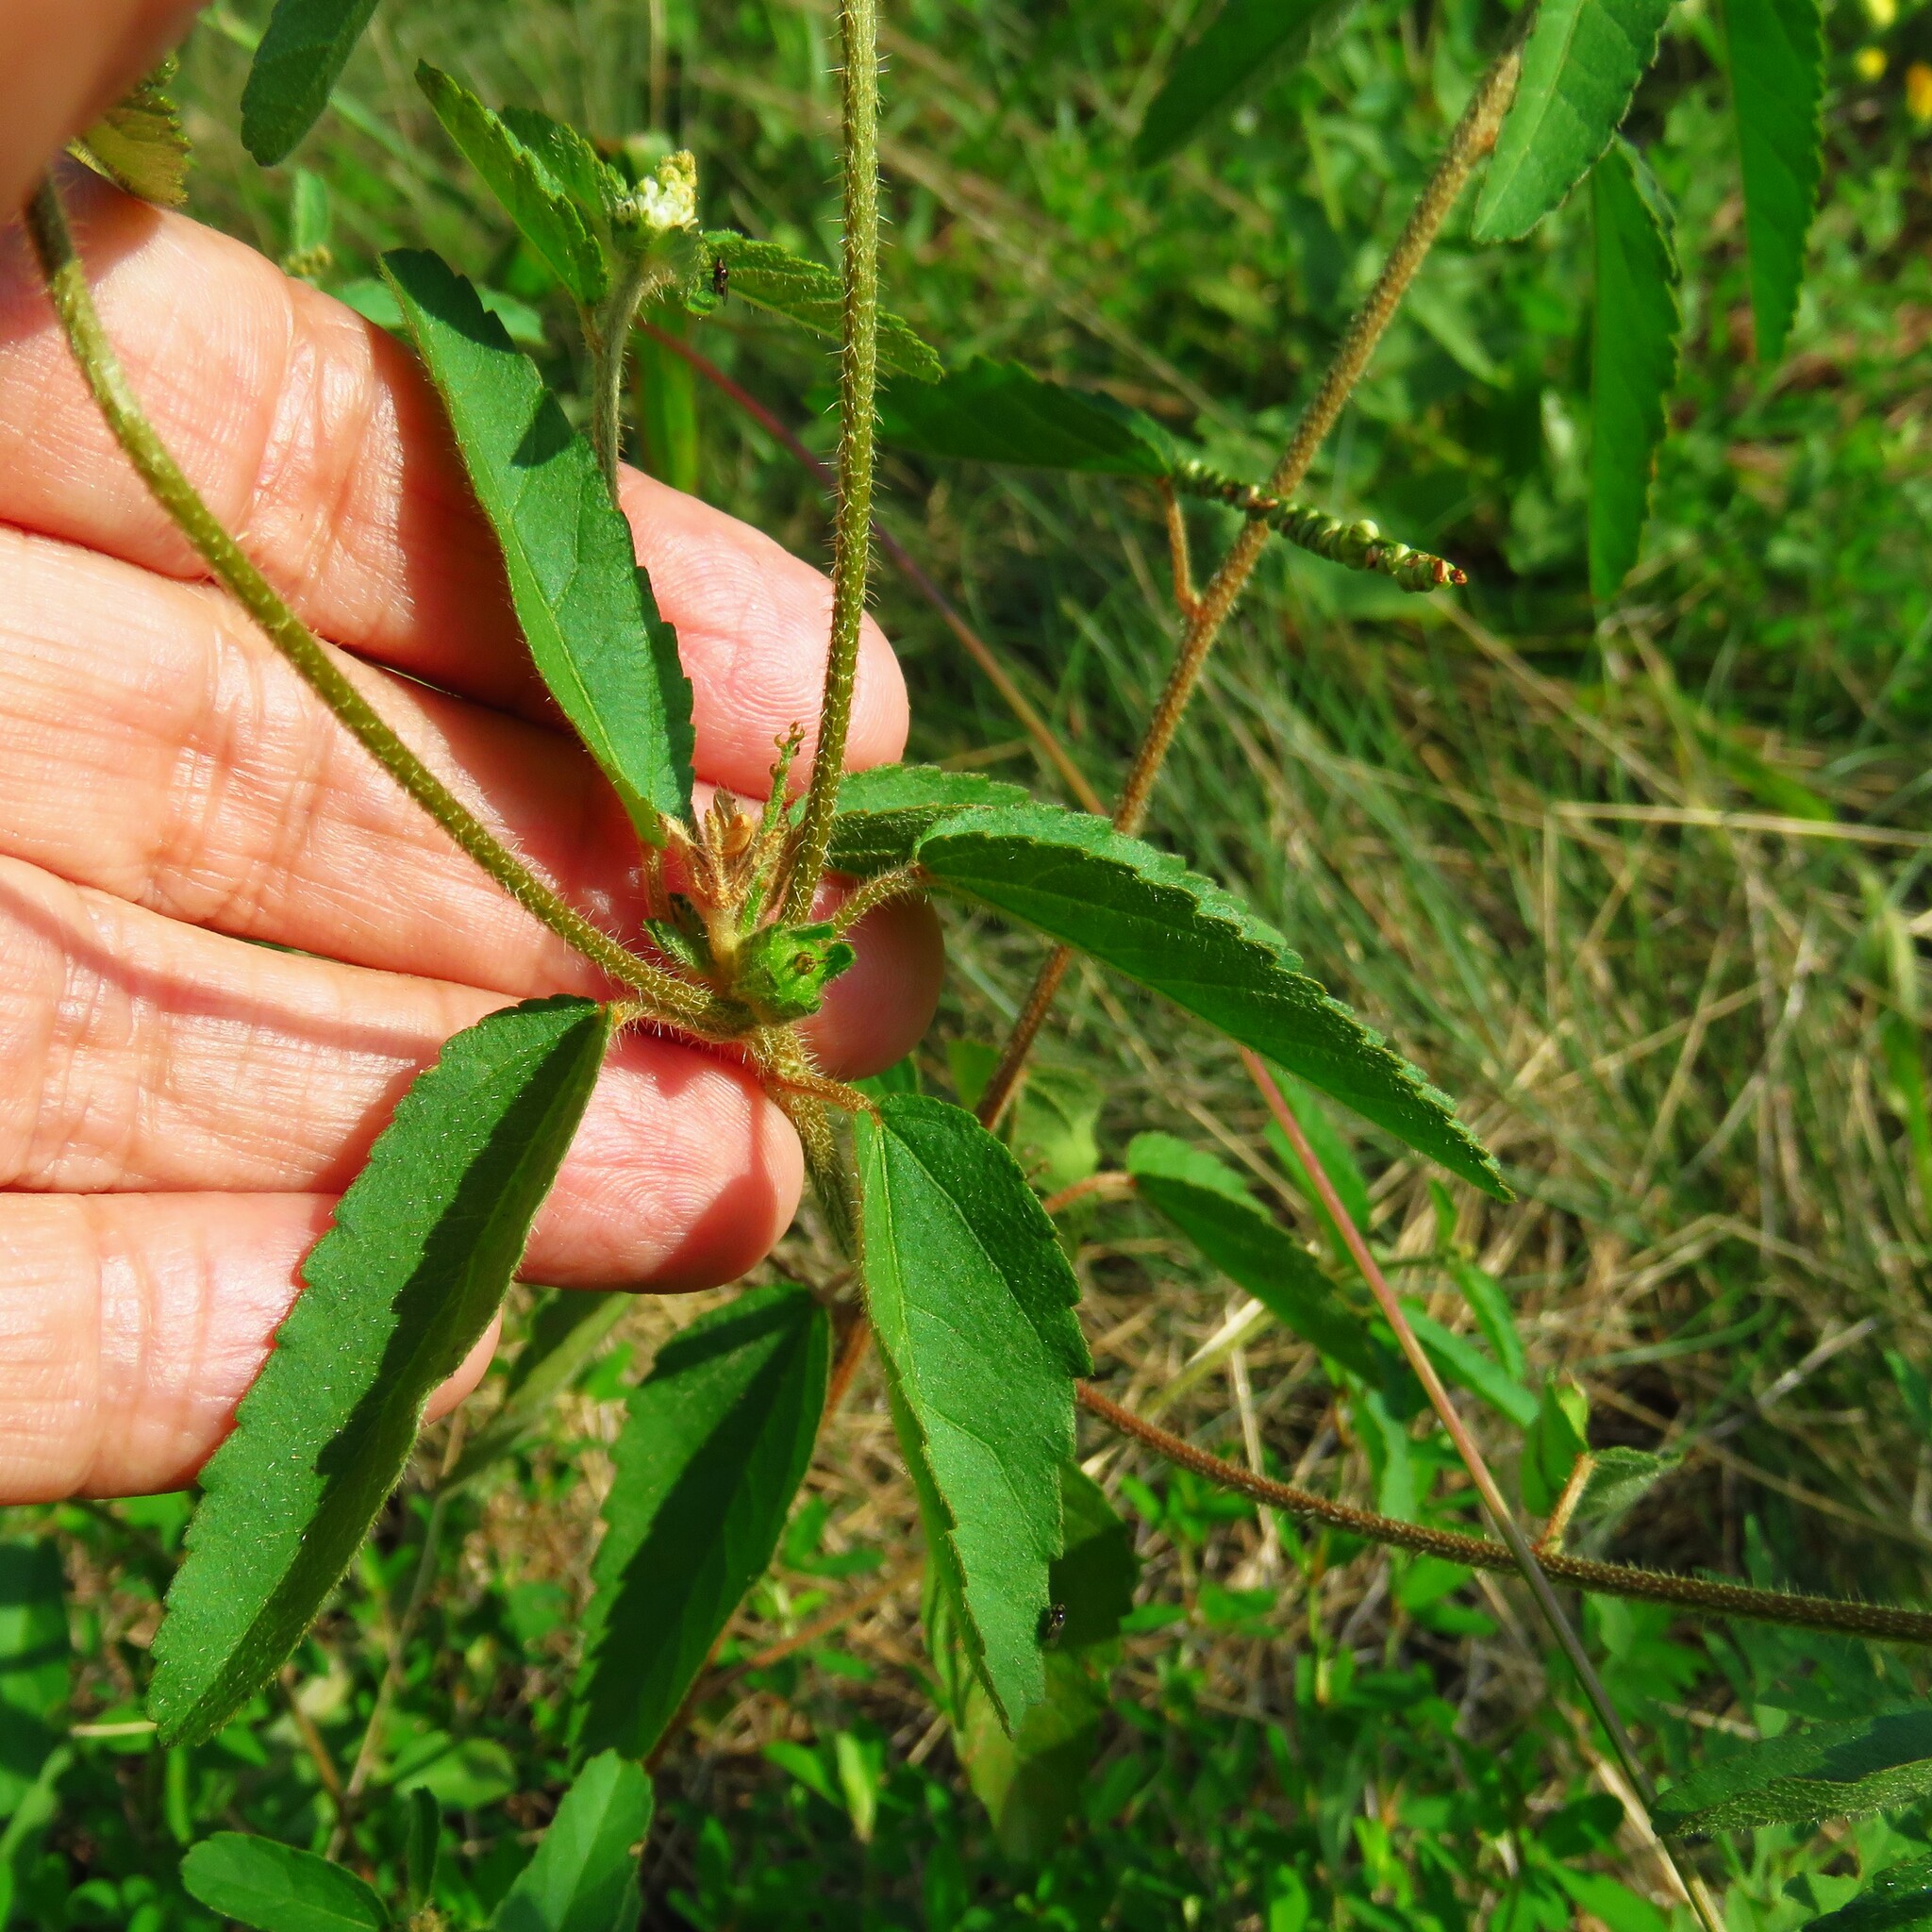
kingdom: Plantae
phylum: Tracheophyta
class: Magnoliopsida
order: Malpighiales
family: Euphorbiaceae
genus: Croton
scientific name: Croton glandulosus
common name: Tropic croton
